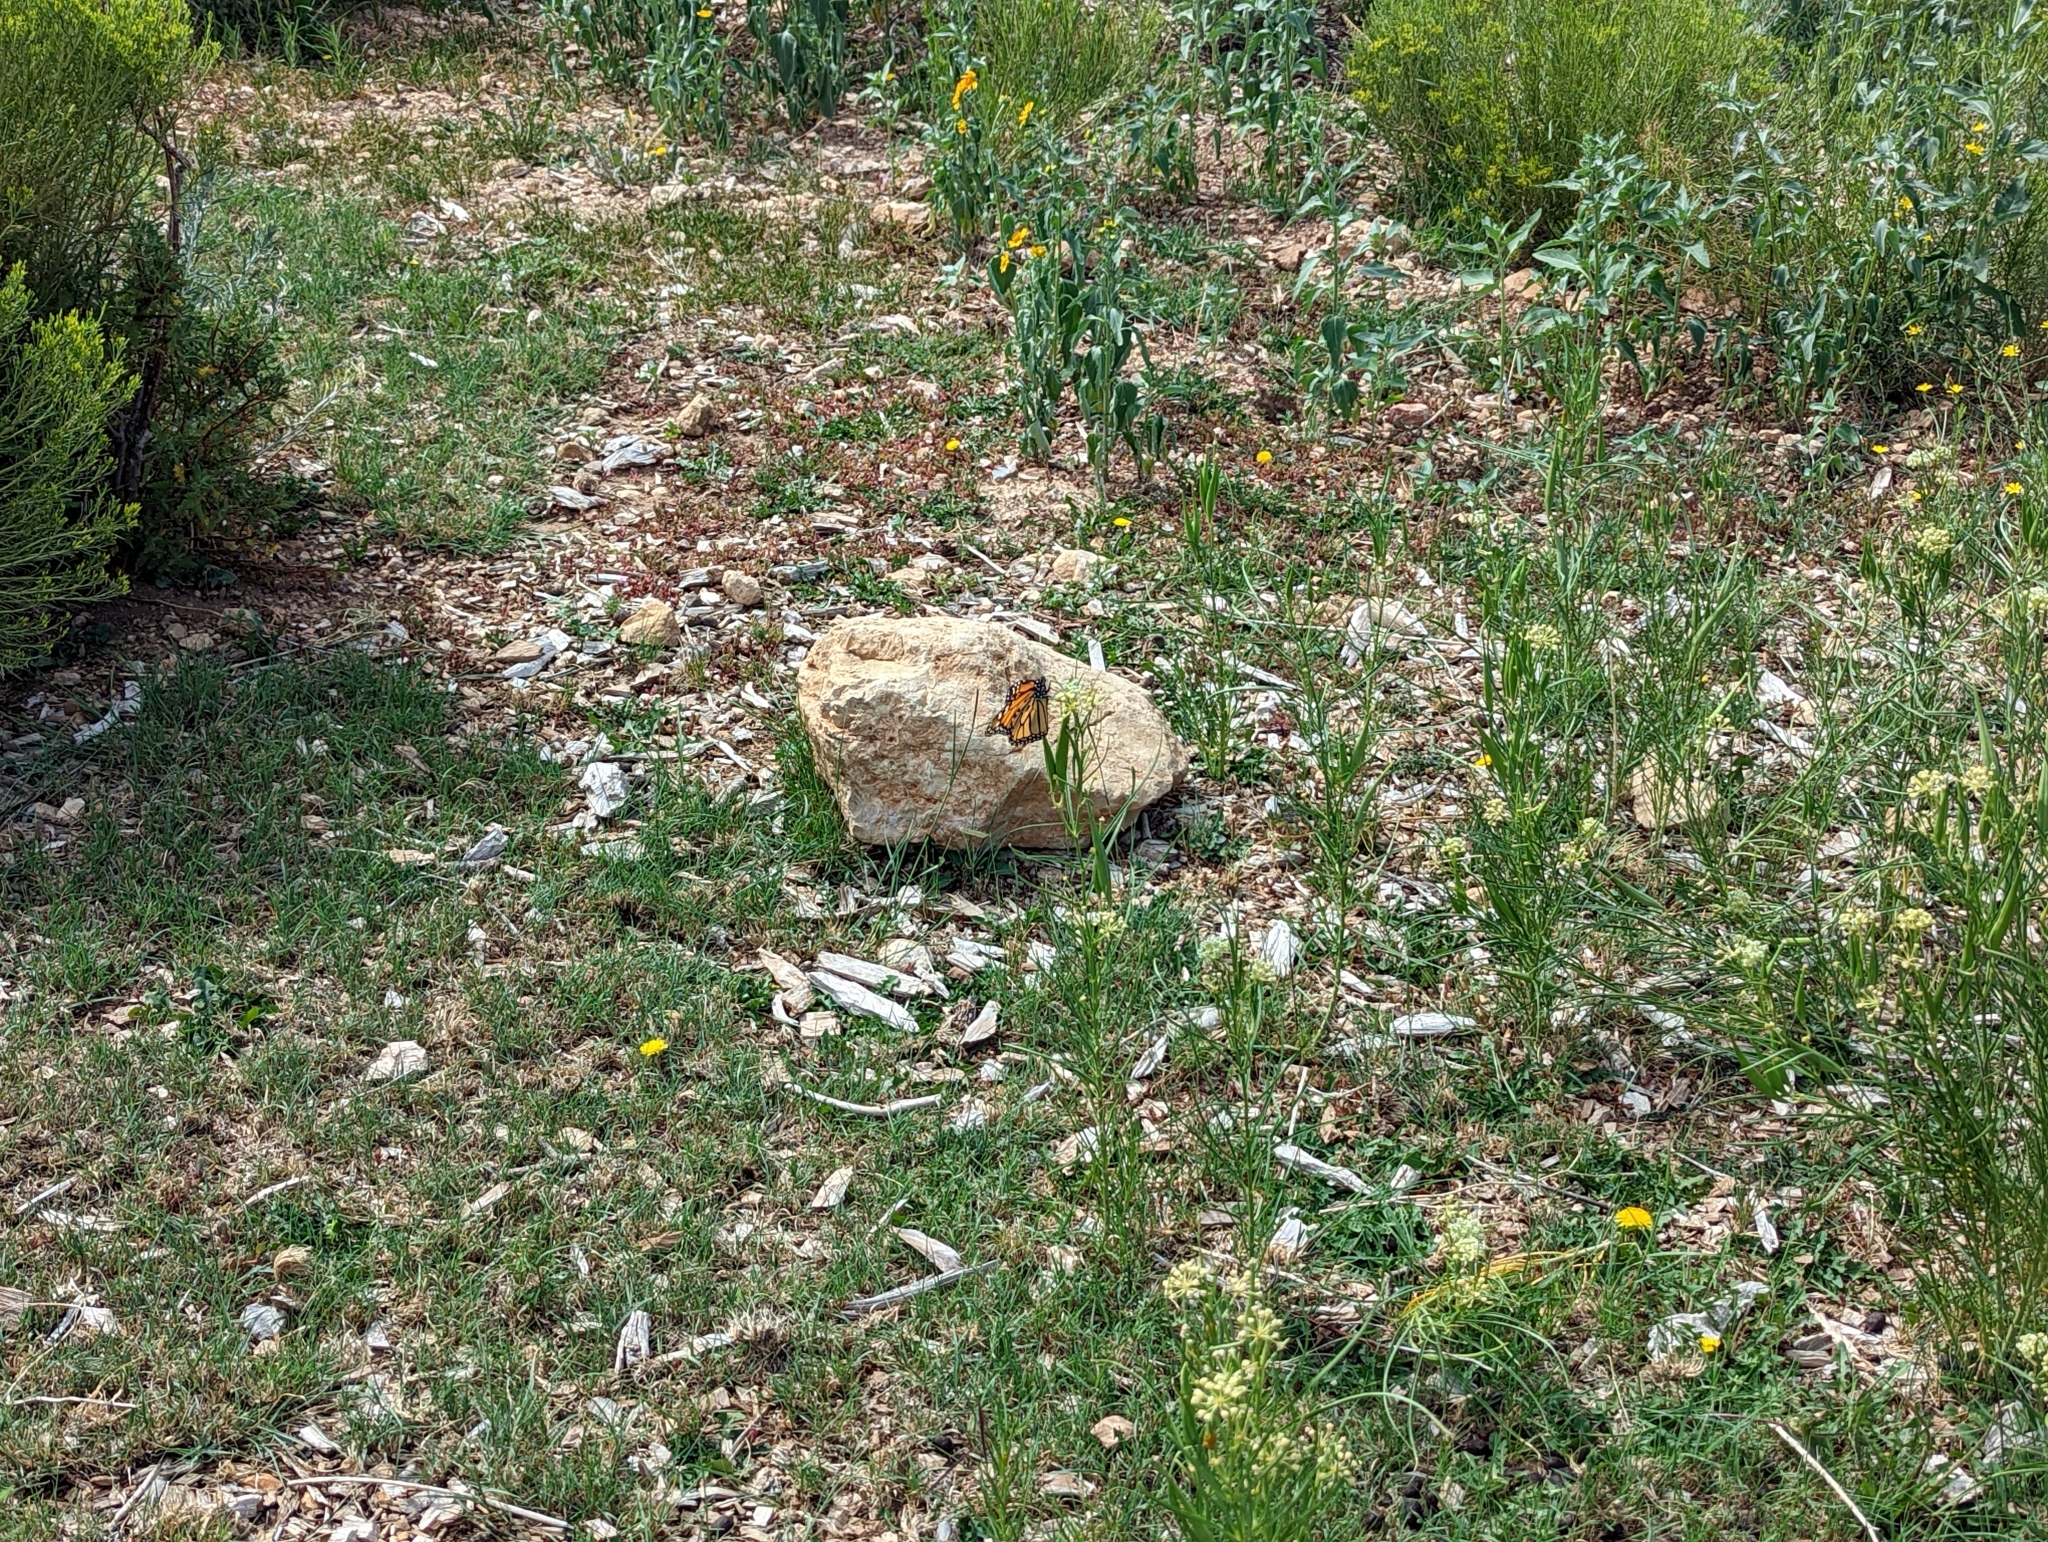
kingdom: Animalia
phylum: Arthropoda
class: Insecta
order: Lepidoptera
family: Nymphalidae
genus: Danaus
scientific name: Danaus plexippus
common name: Monarch
